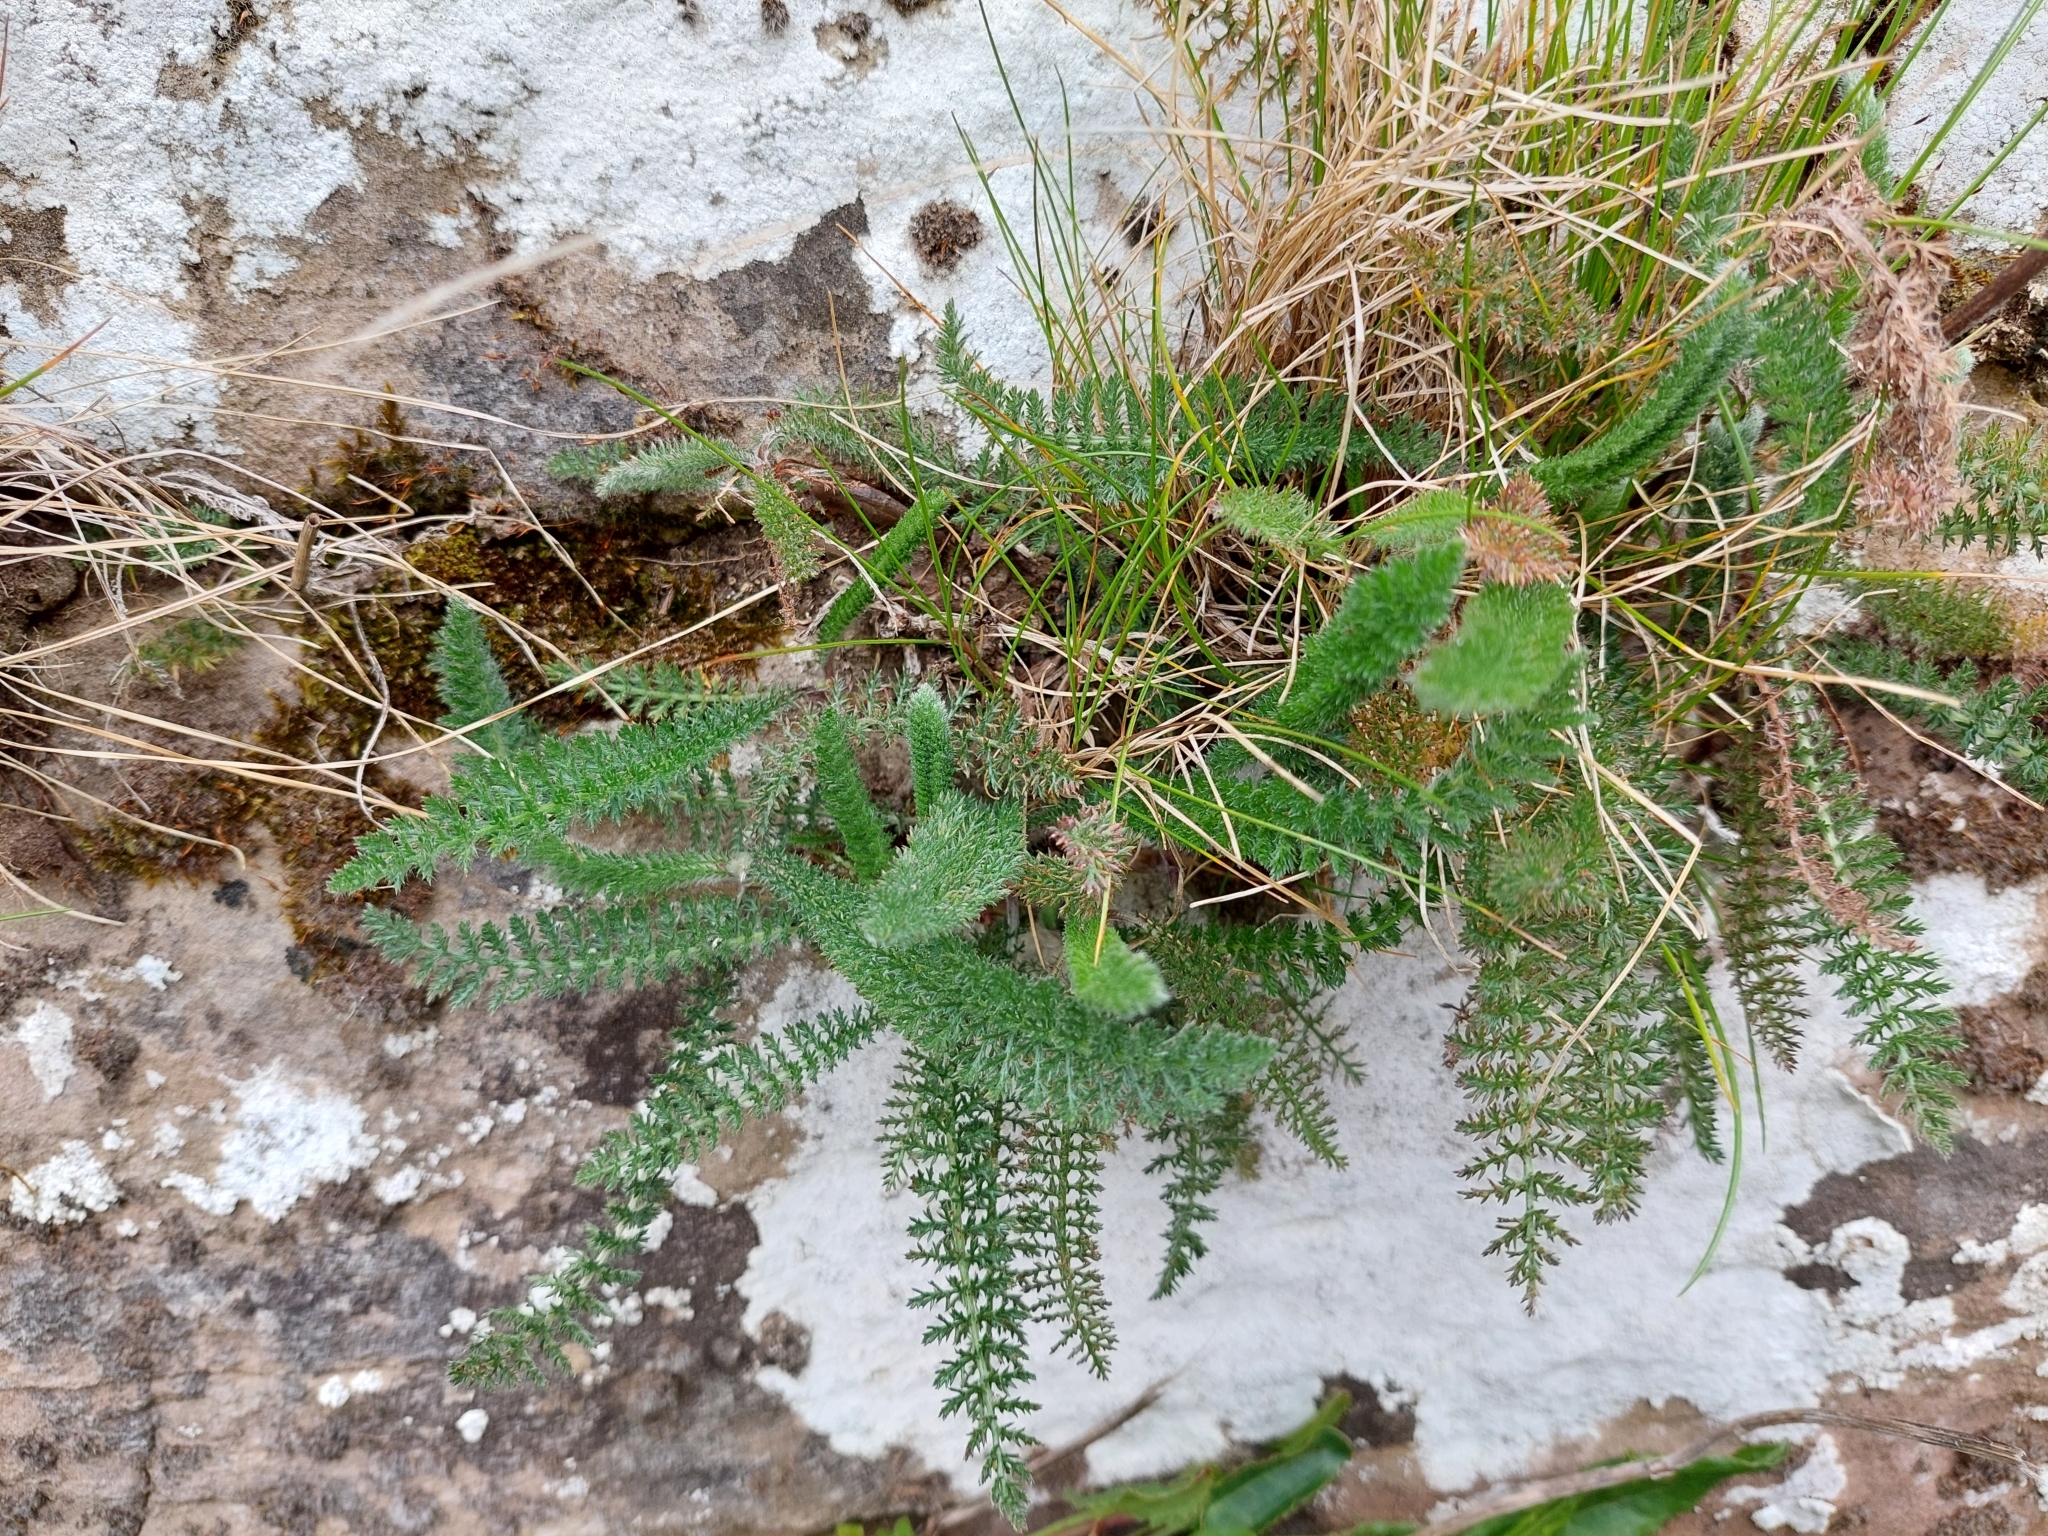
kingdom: Plantae
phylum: Tracheophyta
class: Magnoliopsida
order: Asterales
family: Asteraceae
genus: Achillea
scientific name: Achillea millefolium
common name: Yarrow
